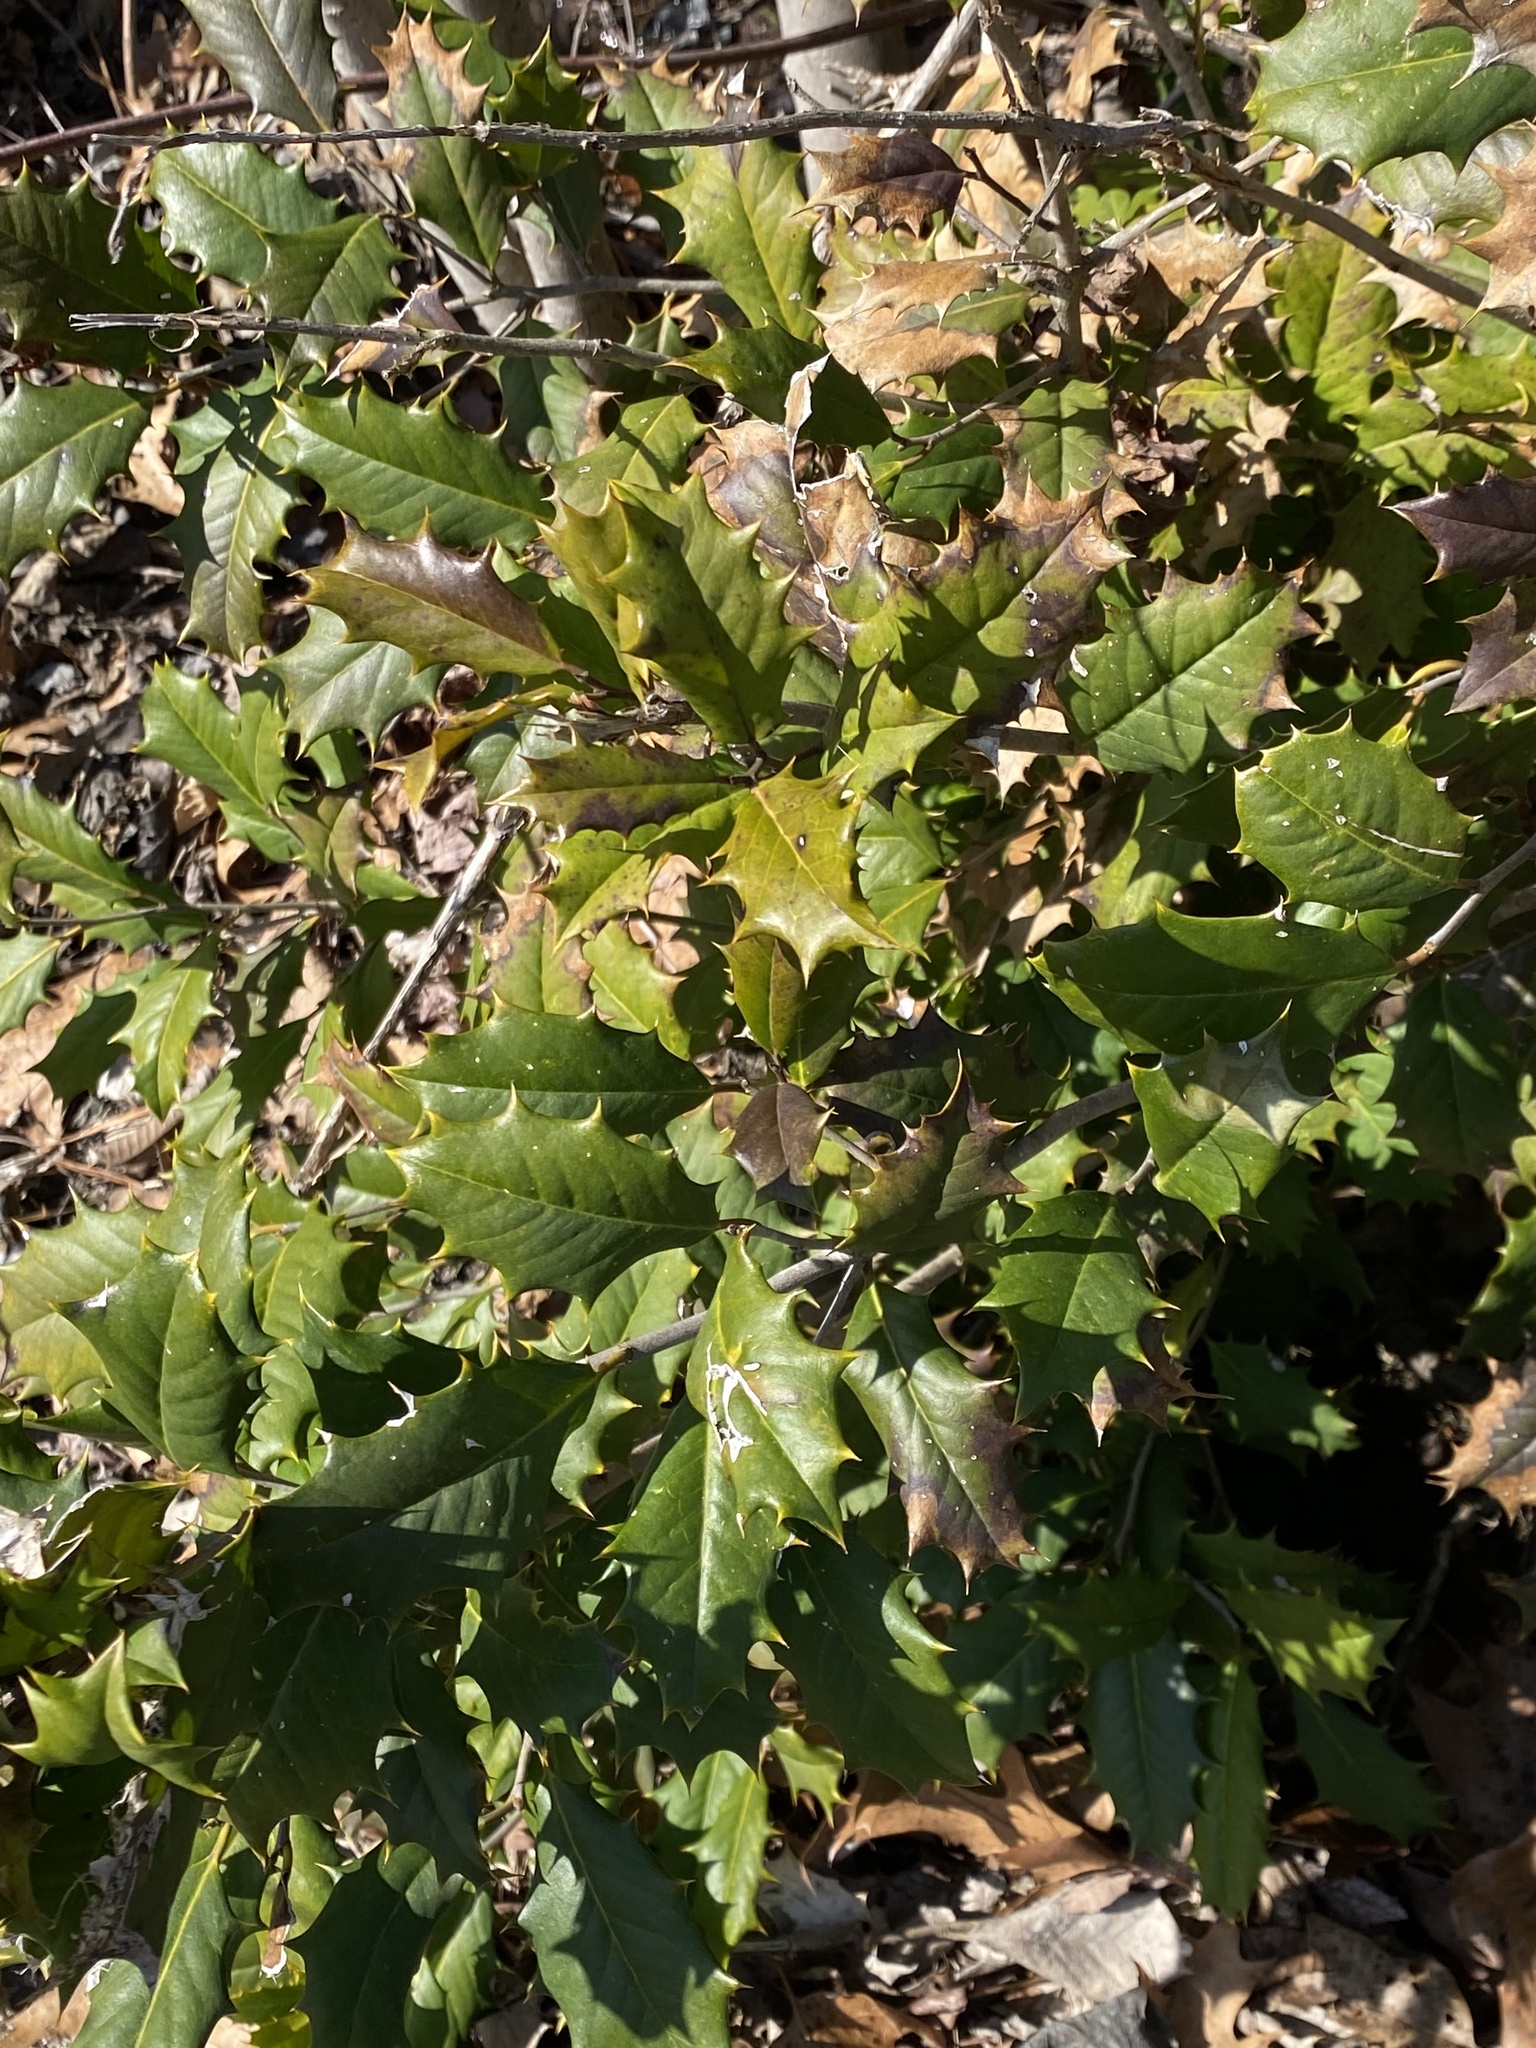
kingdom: Plantae
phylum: Tracheophyta
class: Magnoliopsida
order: Aquifoliales
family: Aquifoliaceae
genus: Ilex
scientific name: Ilex opaca
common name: American holly
